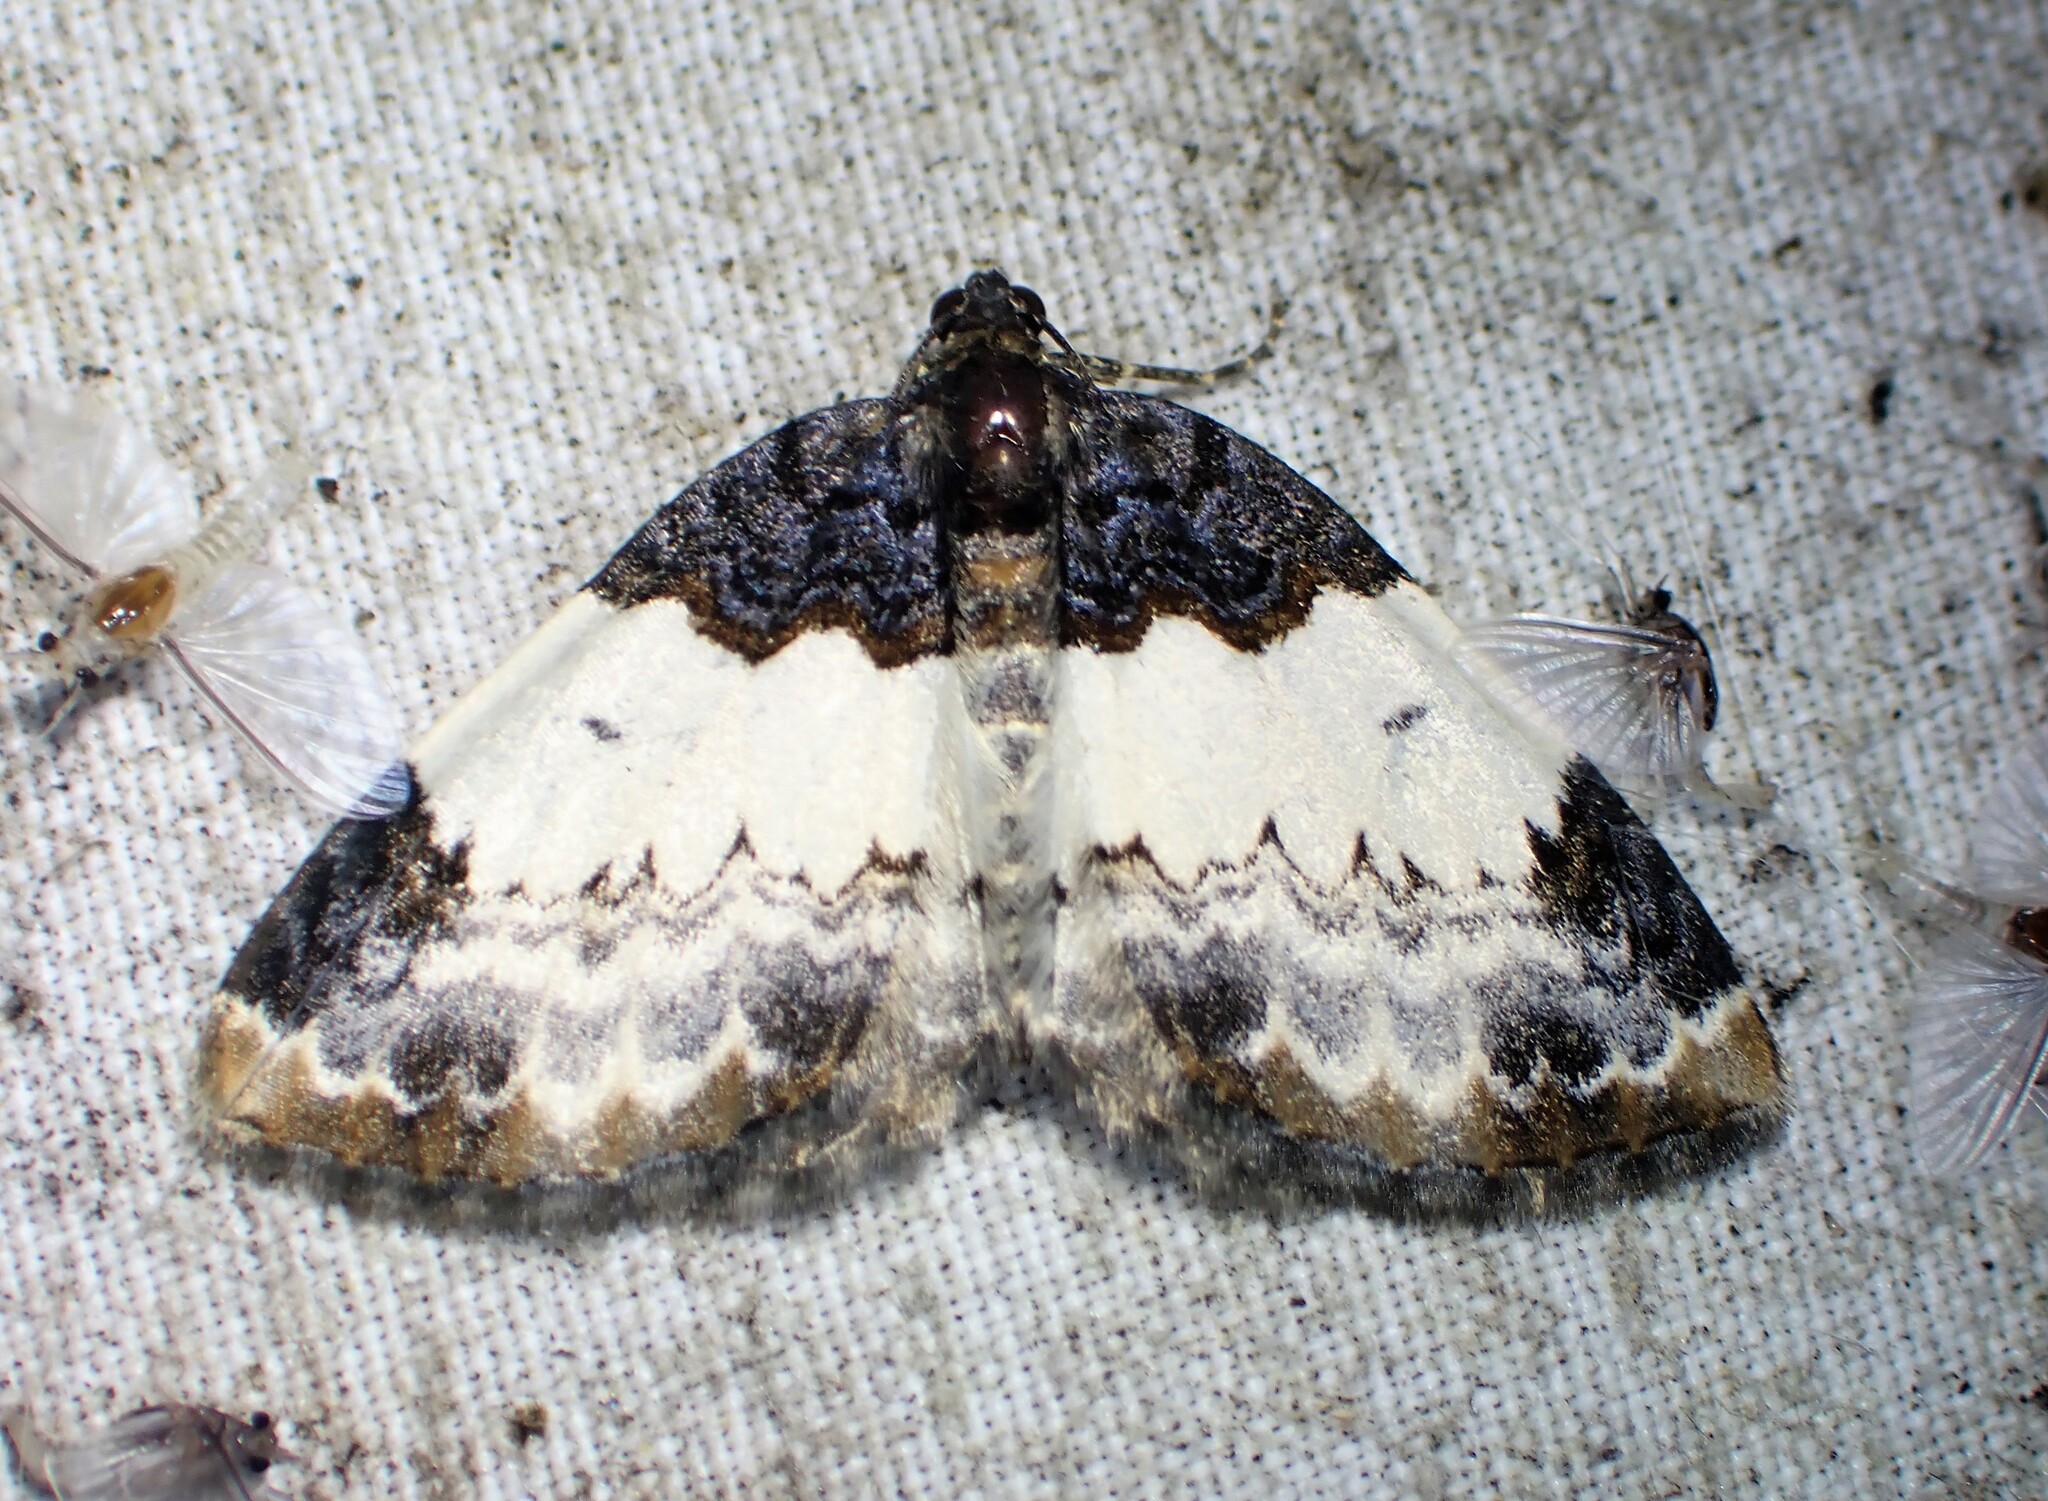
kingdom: Animalia
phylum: Arthropoda
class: Insecta
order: Lepidoptera
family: Geometridae
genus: Mesoleuca
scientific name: Mesoleuca ruficillata
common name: White-ribboned carpet moth
